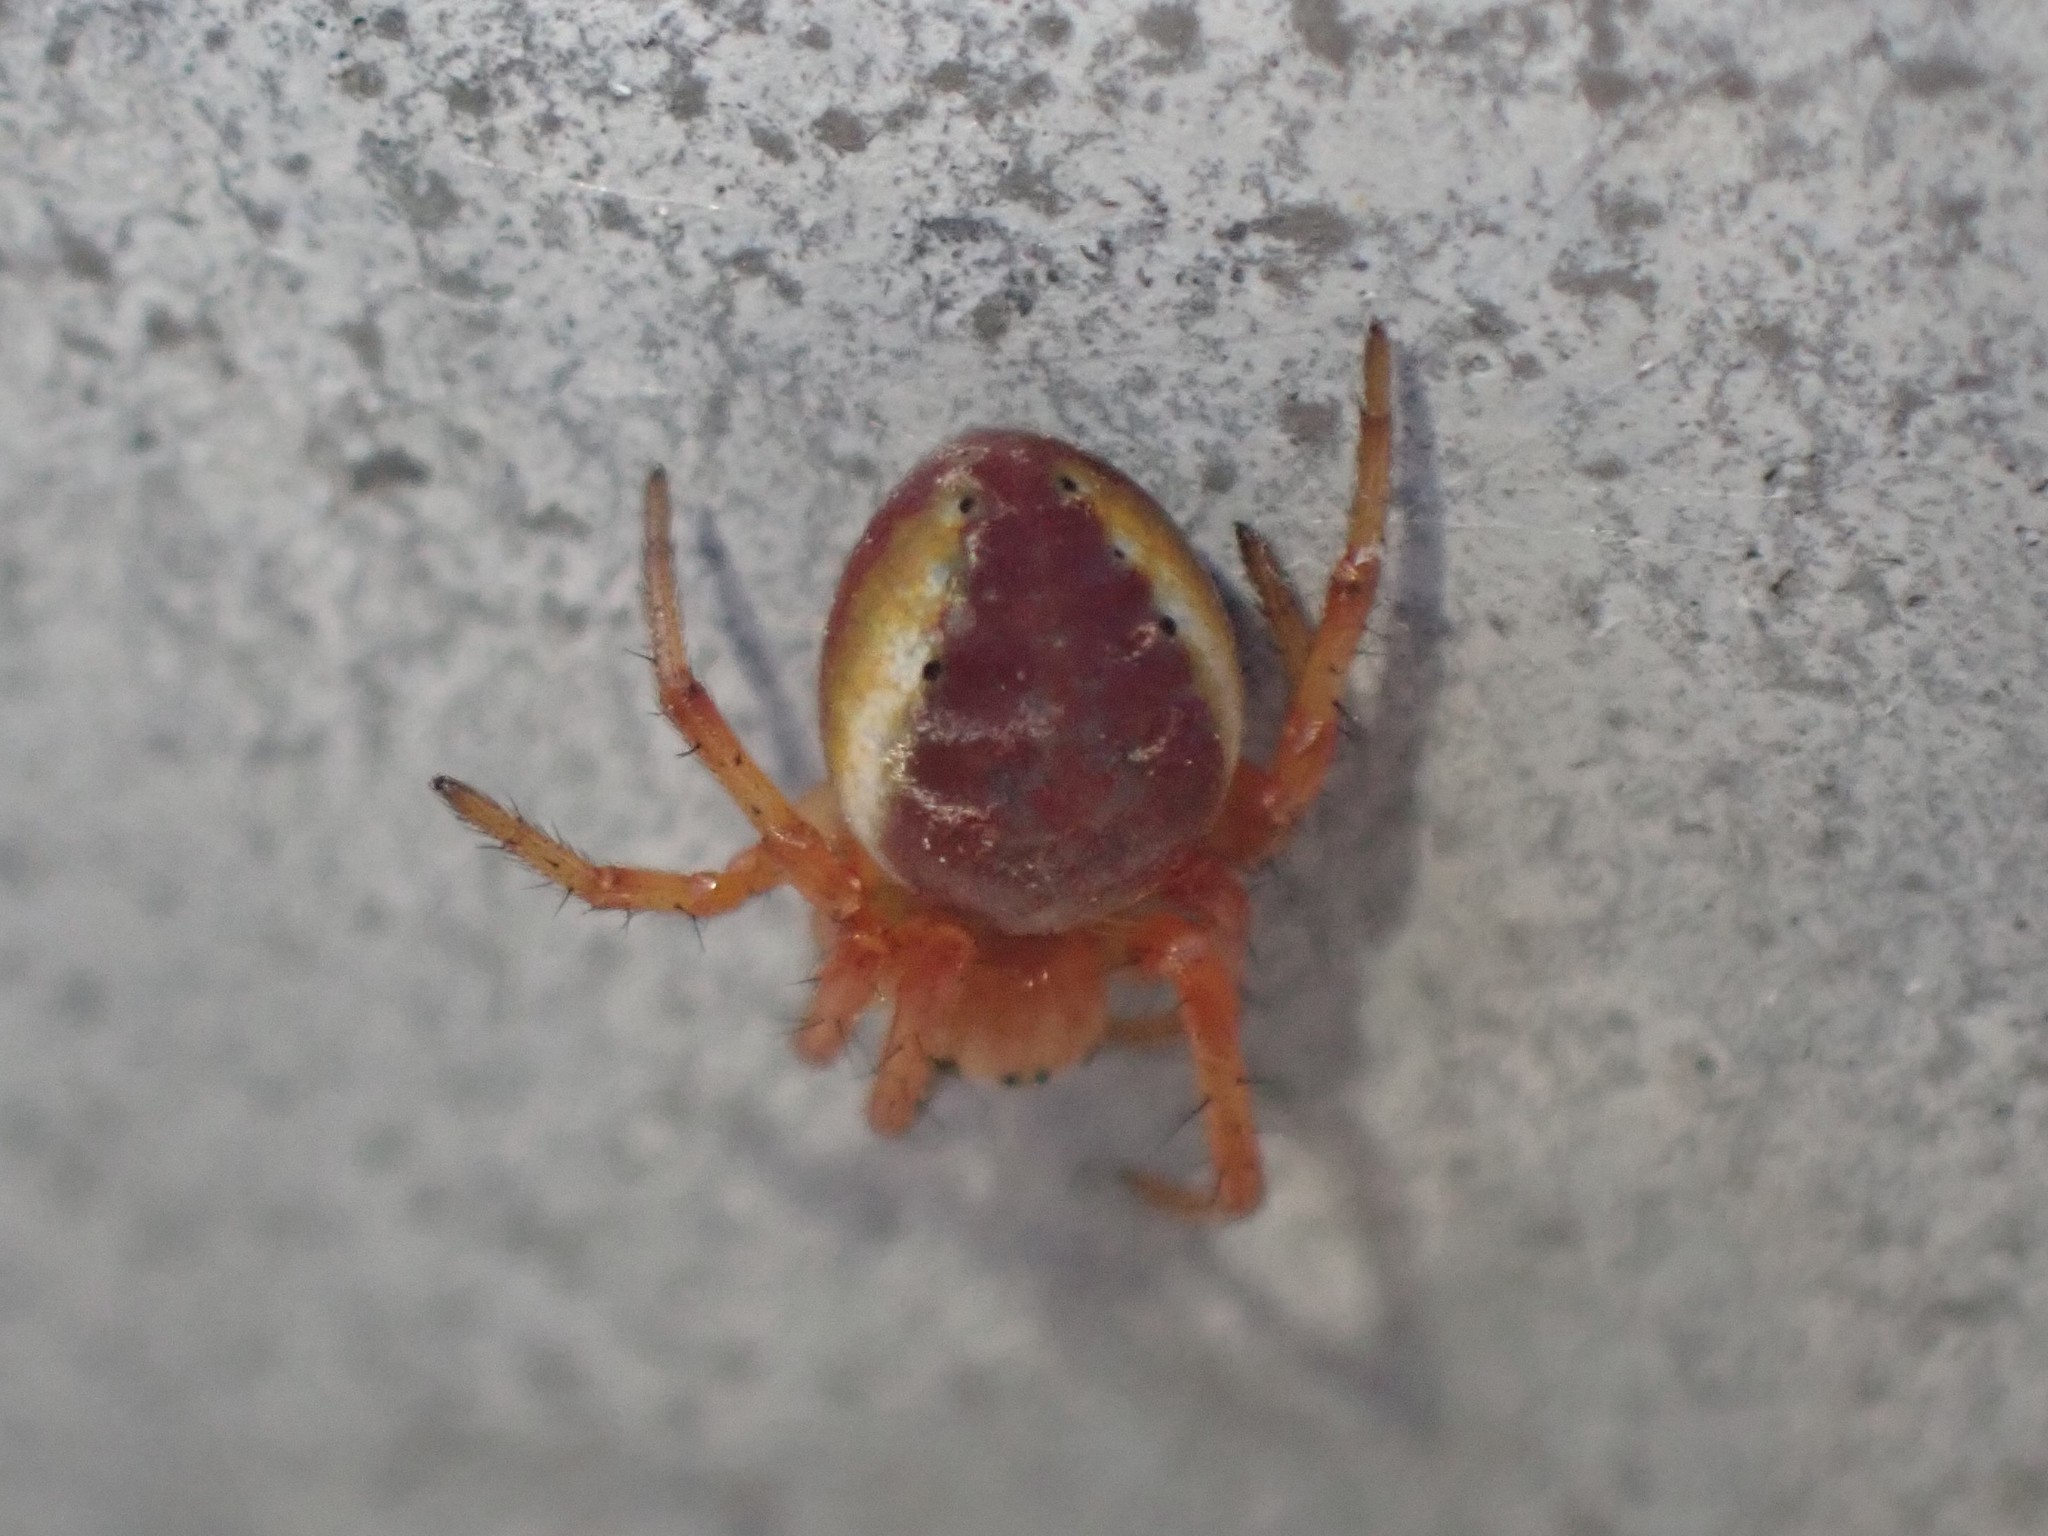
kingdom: Animalia
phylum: Arthropoda
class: Arachnida
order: Araneae
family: Araneidae
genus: Araniella
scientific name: Araniella displicata
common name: Sixspotted orb weaver
